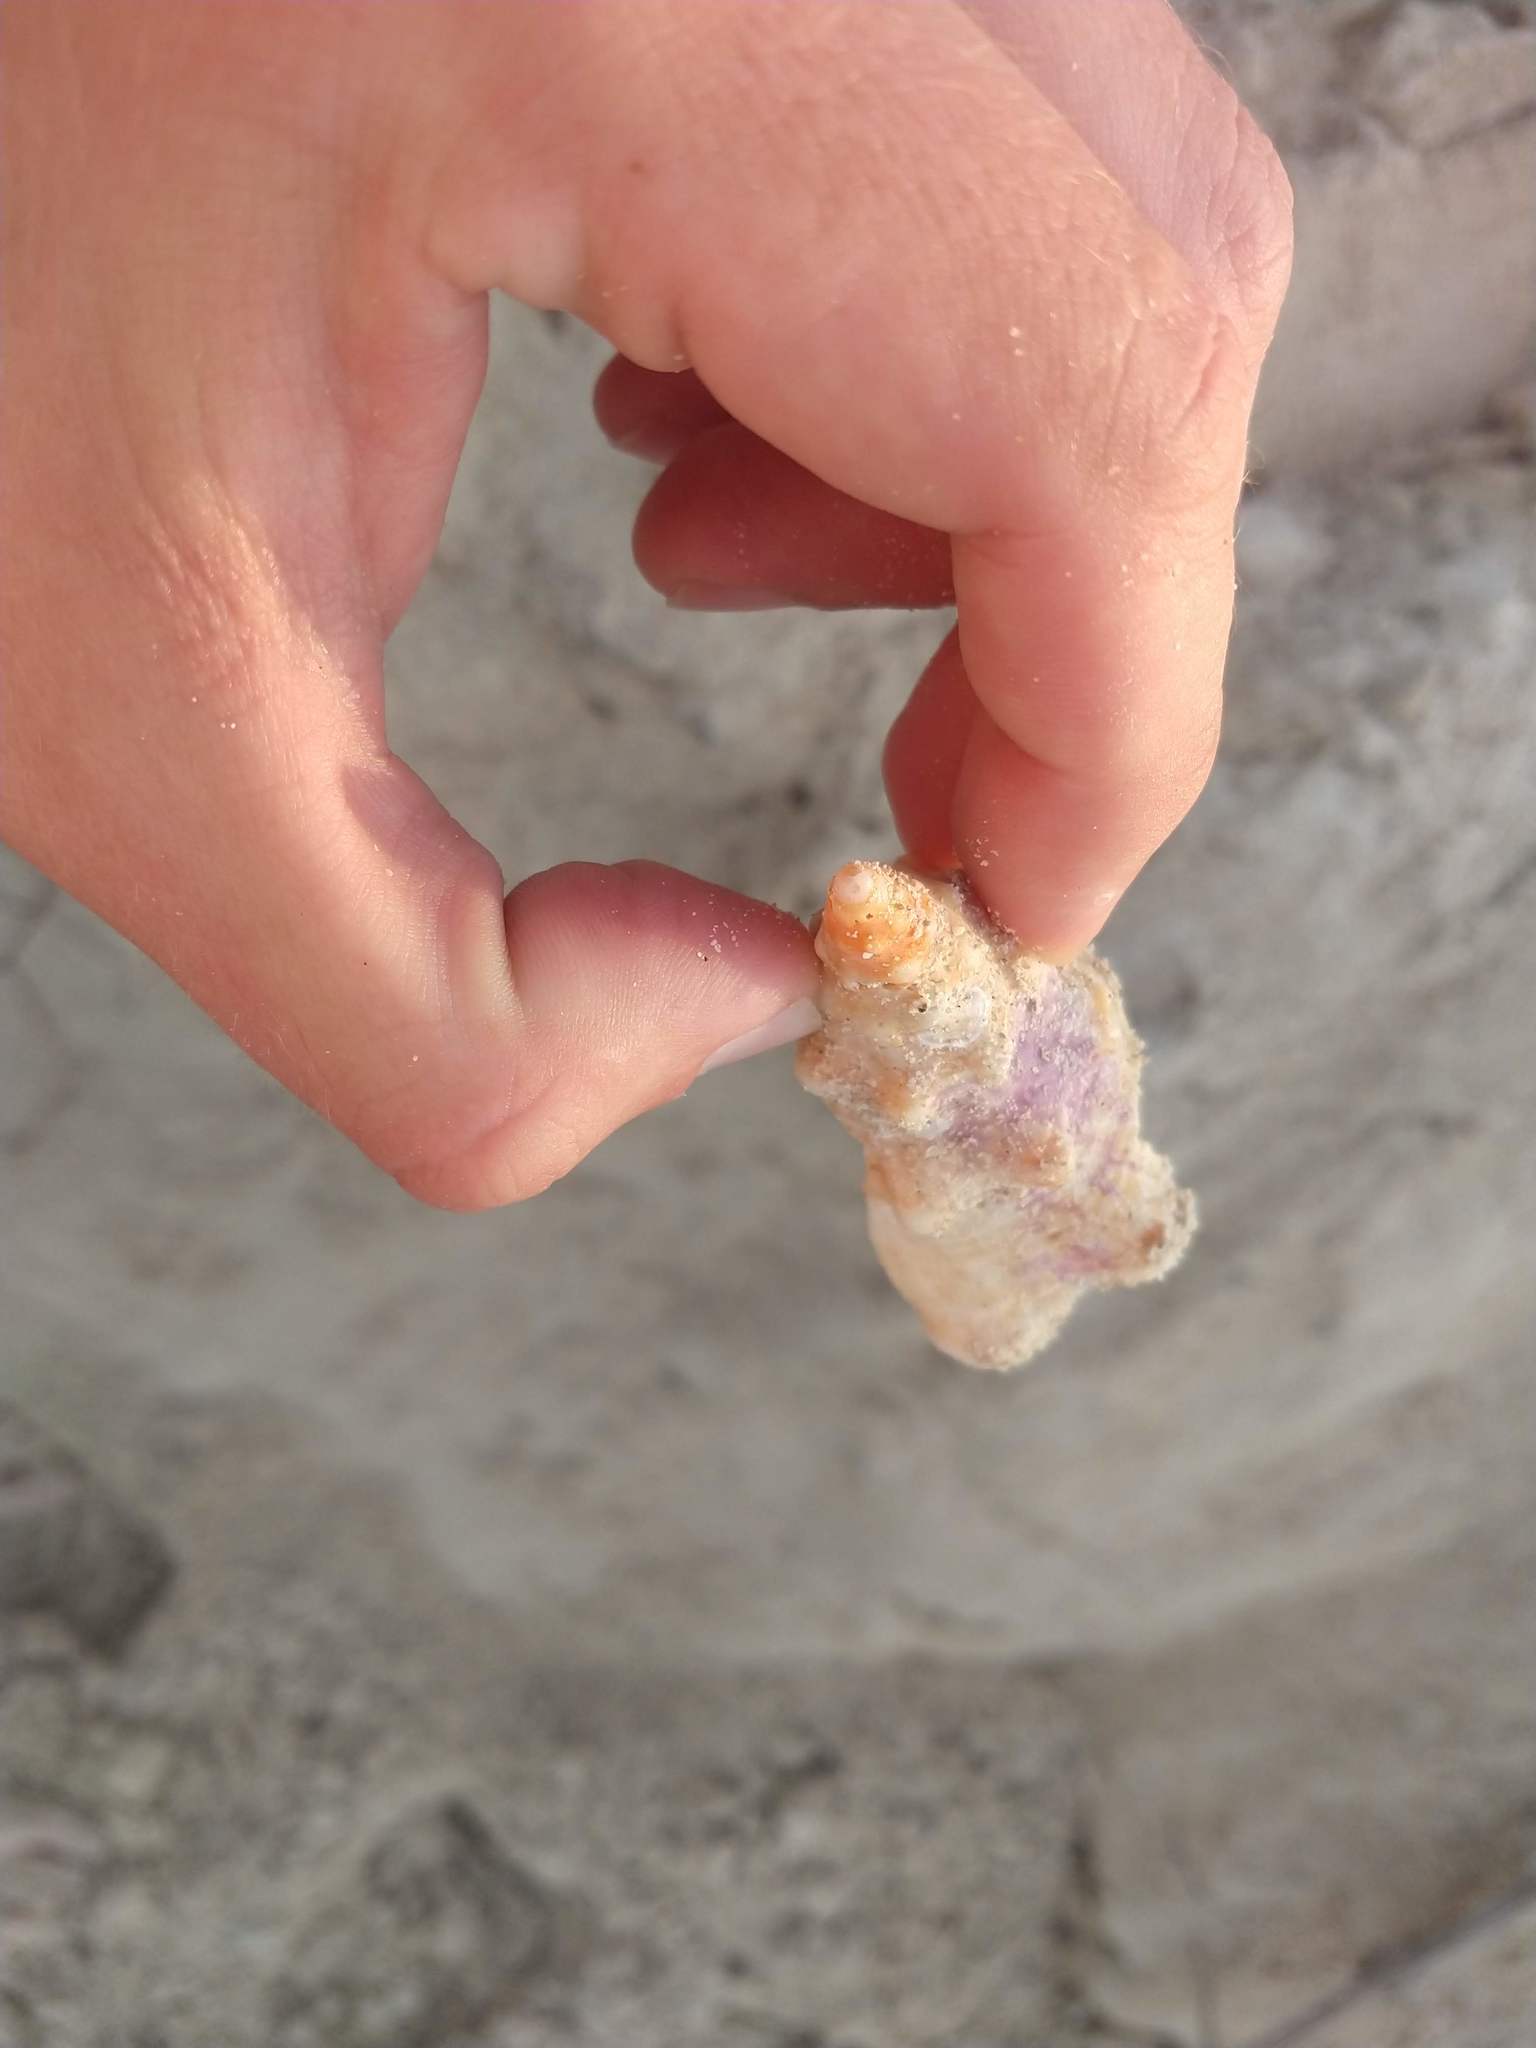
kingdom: Animalia
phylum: Mollusca
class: Gastropoda
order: Neogastropoda
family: Fasciolariidae
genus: Triplofusus
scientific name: Triplofusus giganteus
